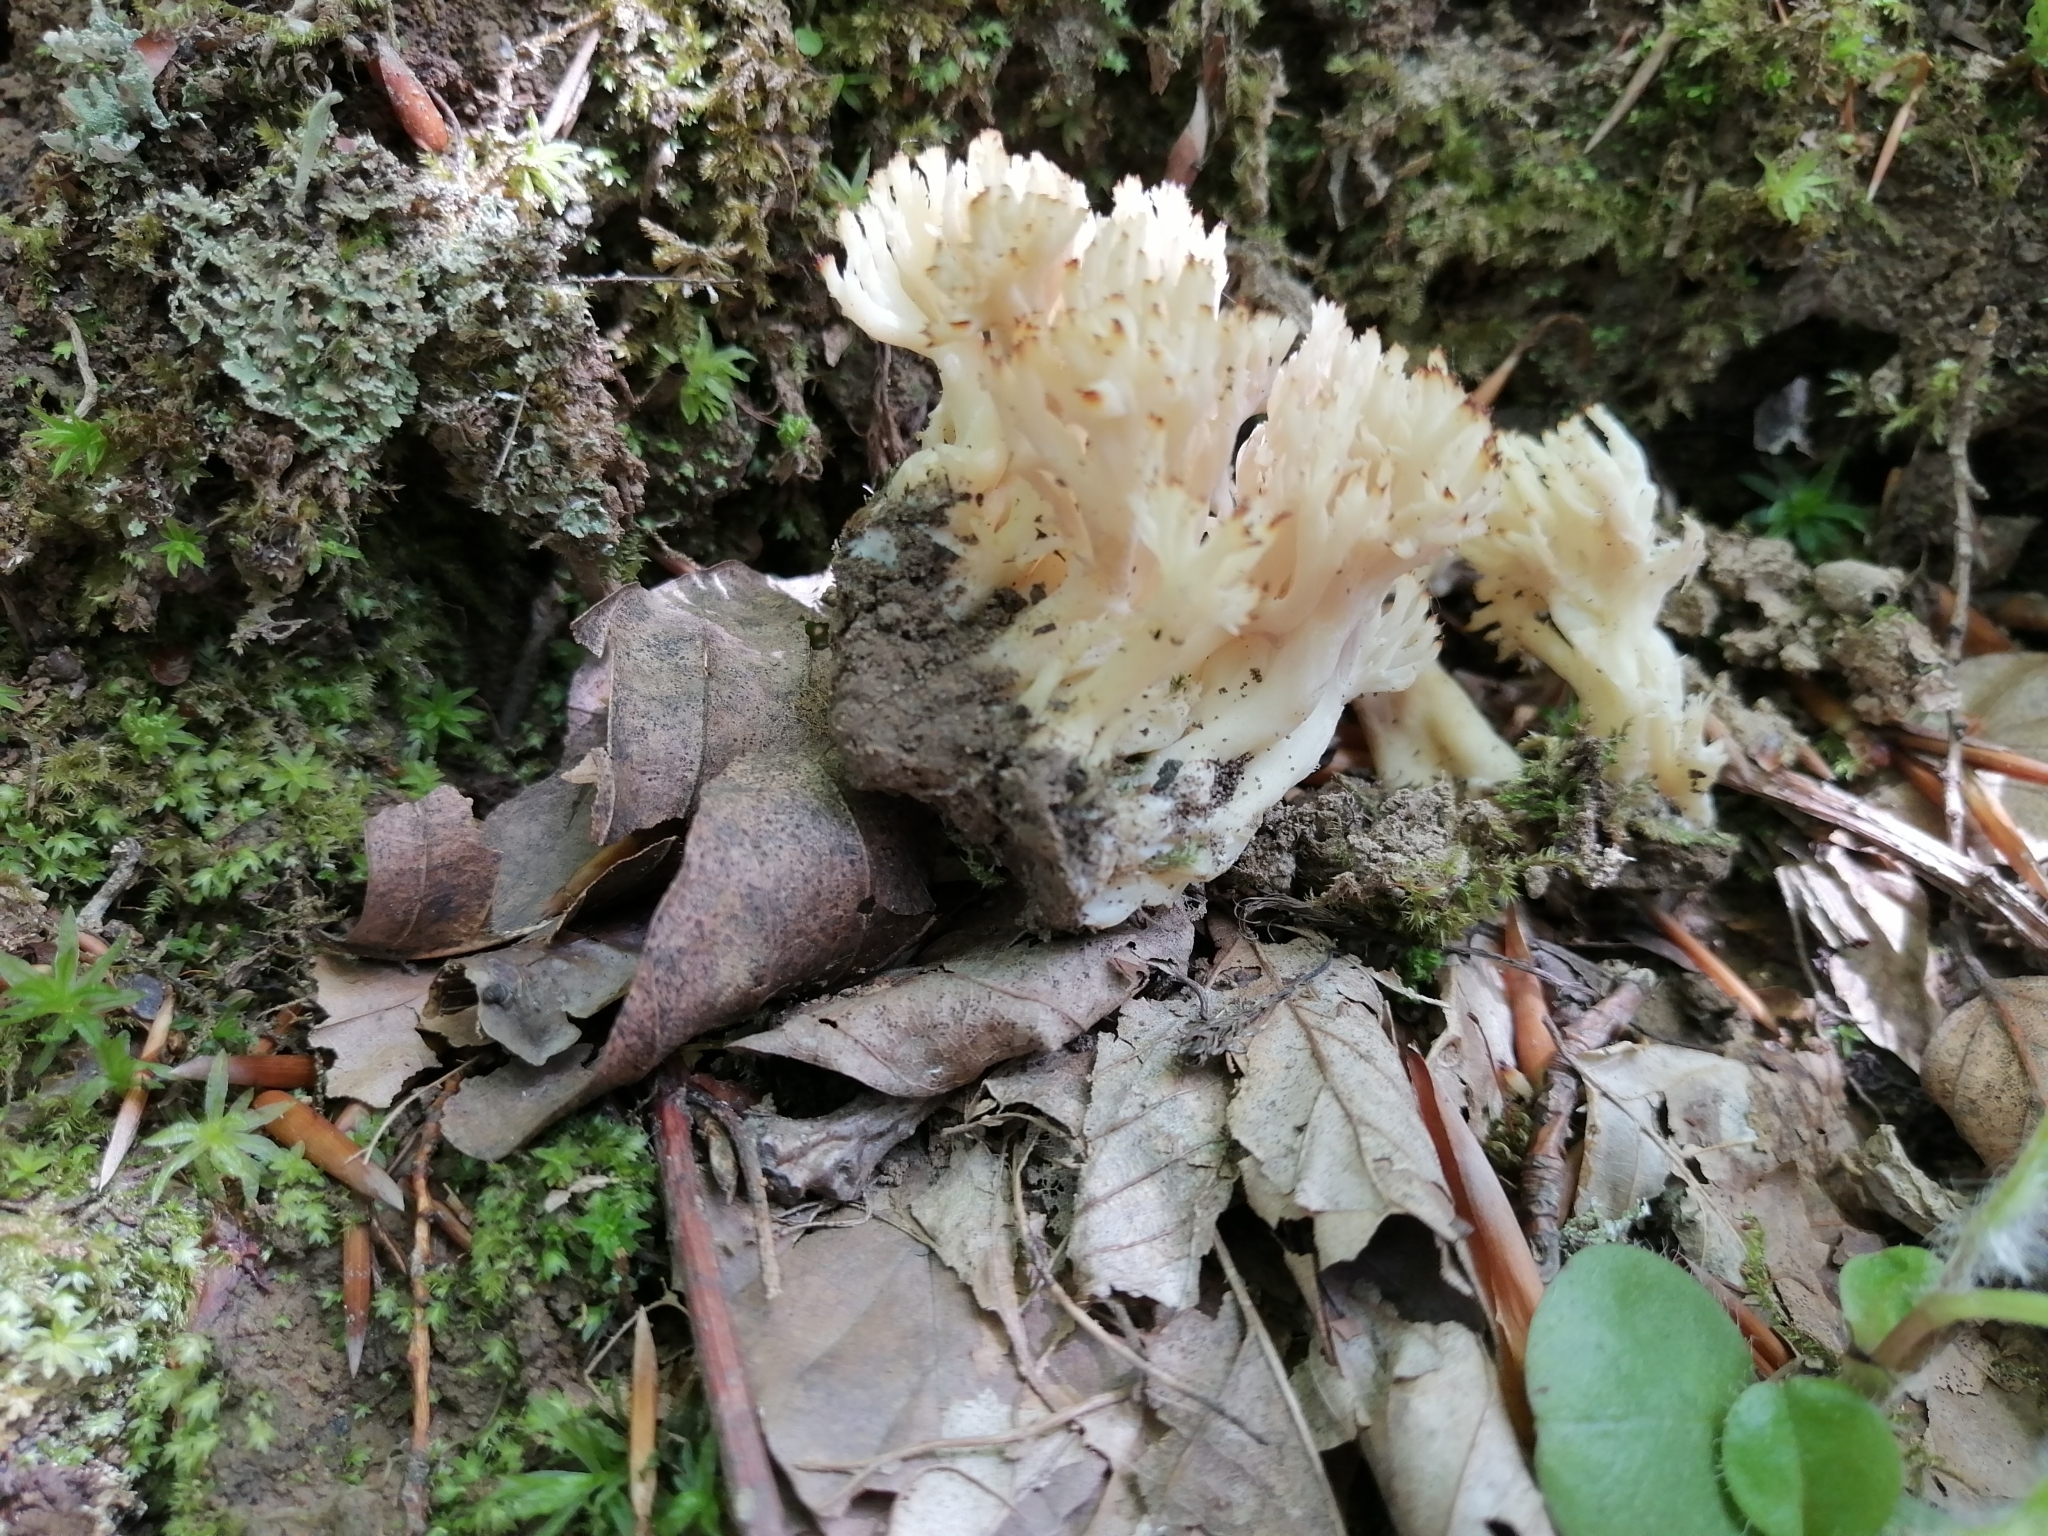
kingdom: Fungi
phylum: Basidiomycota
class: Agaricomycetes
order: Cantharellales
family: Hydnaceae
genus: Clavulina
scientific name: Clavulina coralloides
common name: Crested coral
